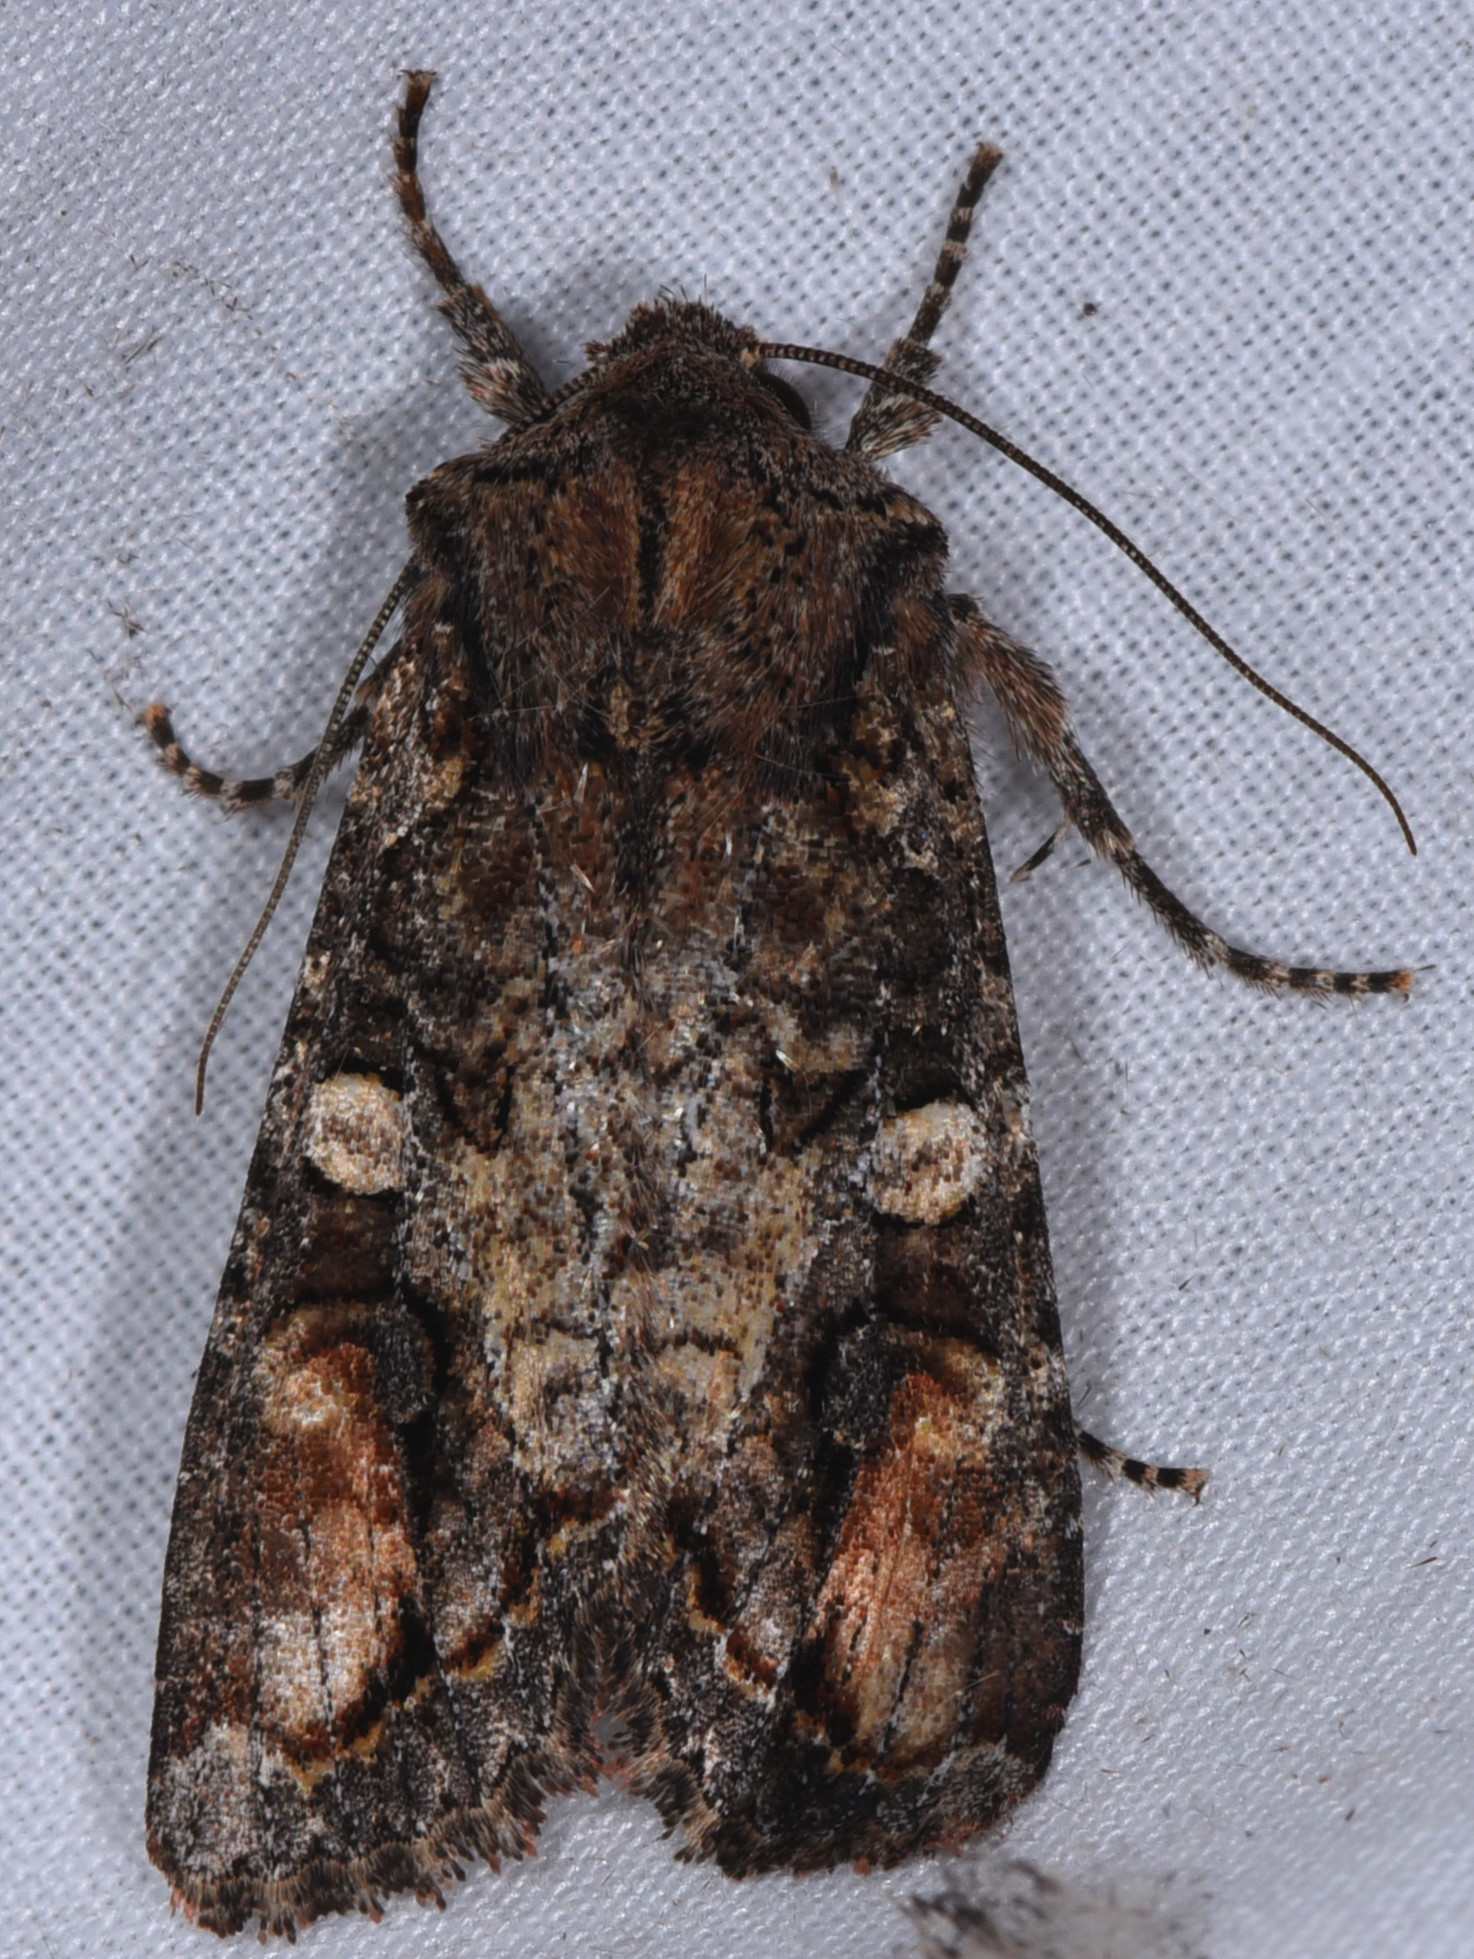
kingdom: Animalia
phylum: Arthropoda
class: Insecta
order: Lepidoptera
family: Noctuidae
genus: Egira
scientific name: Egira perlubens
